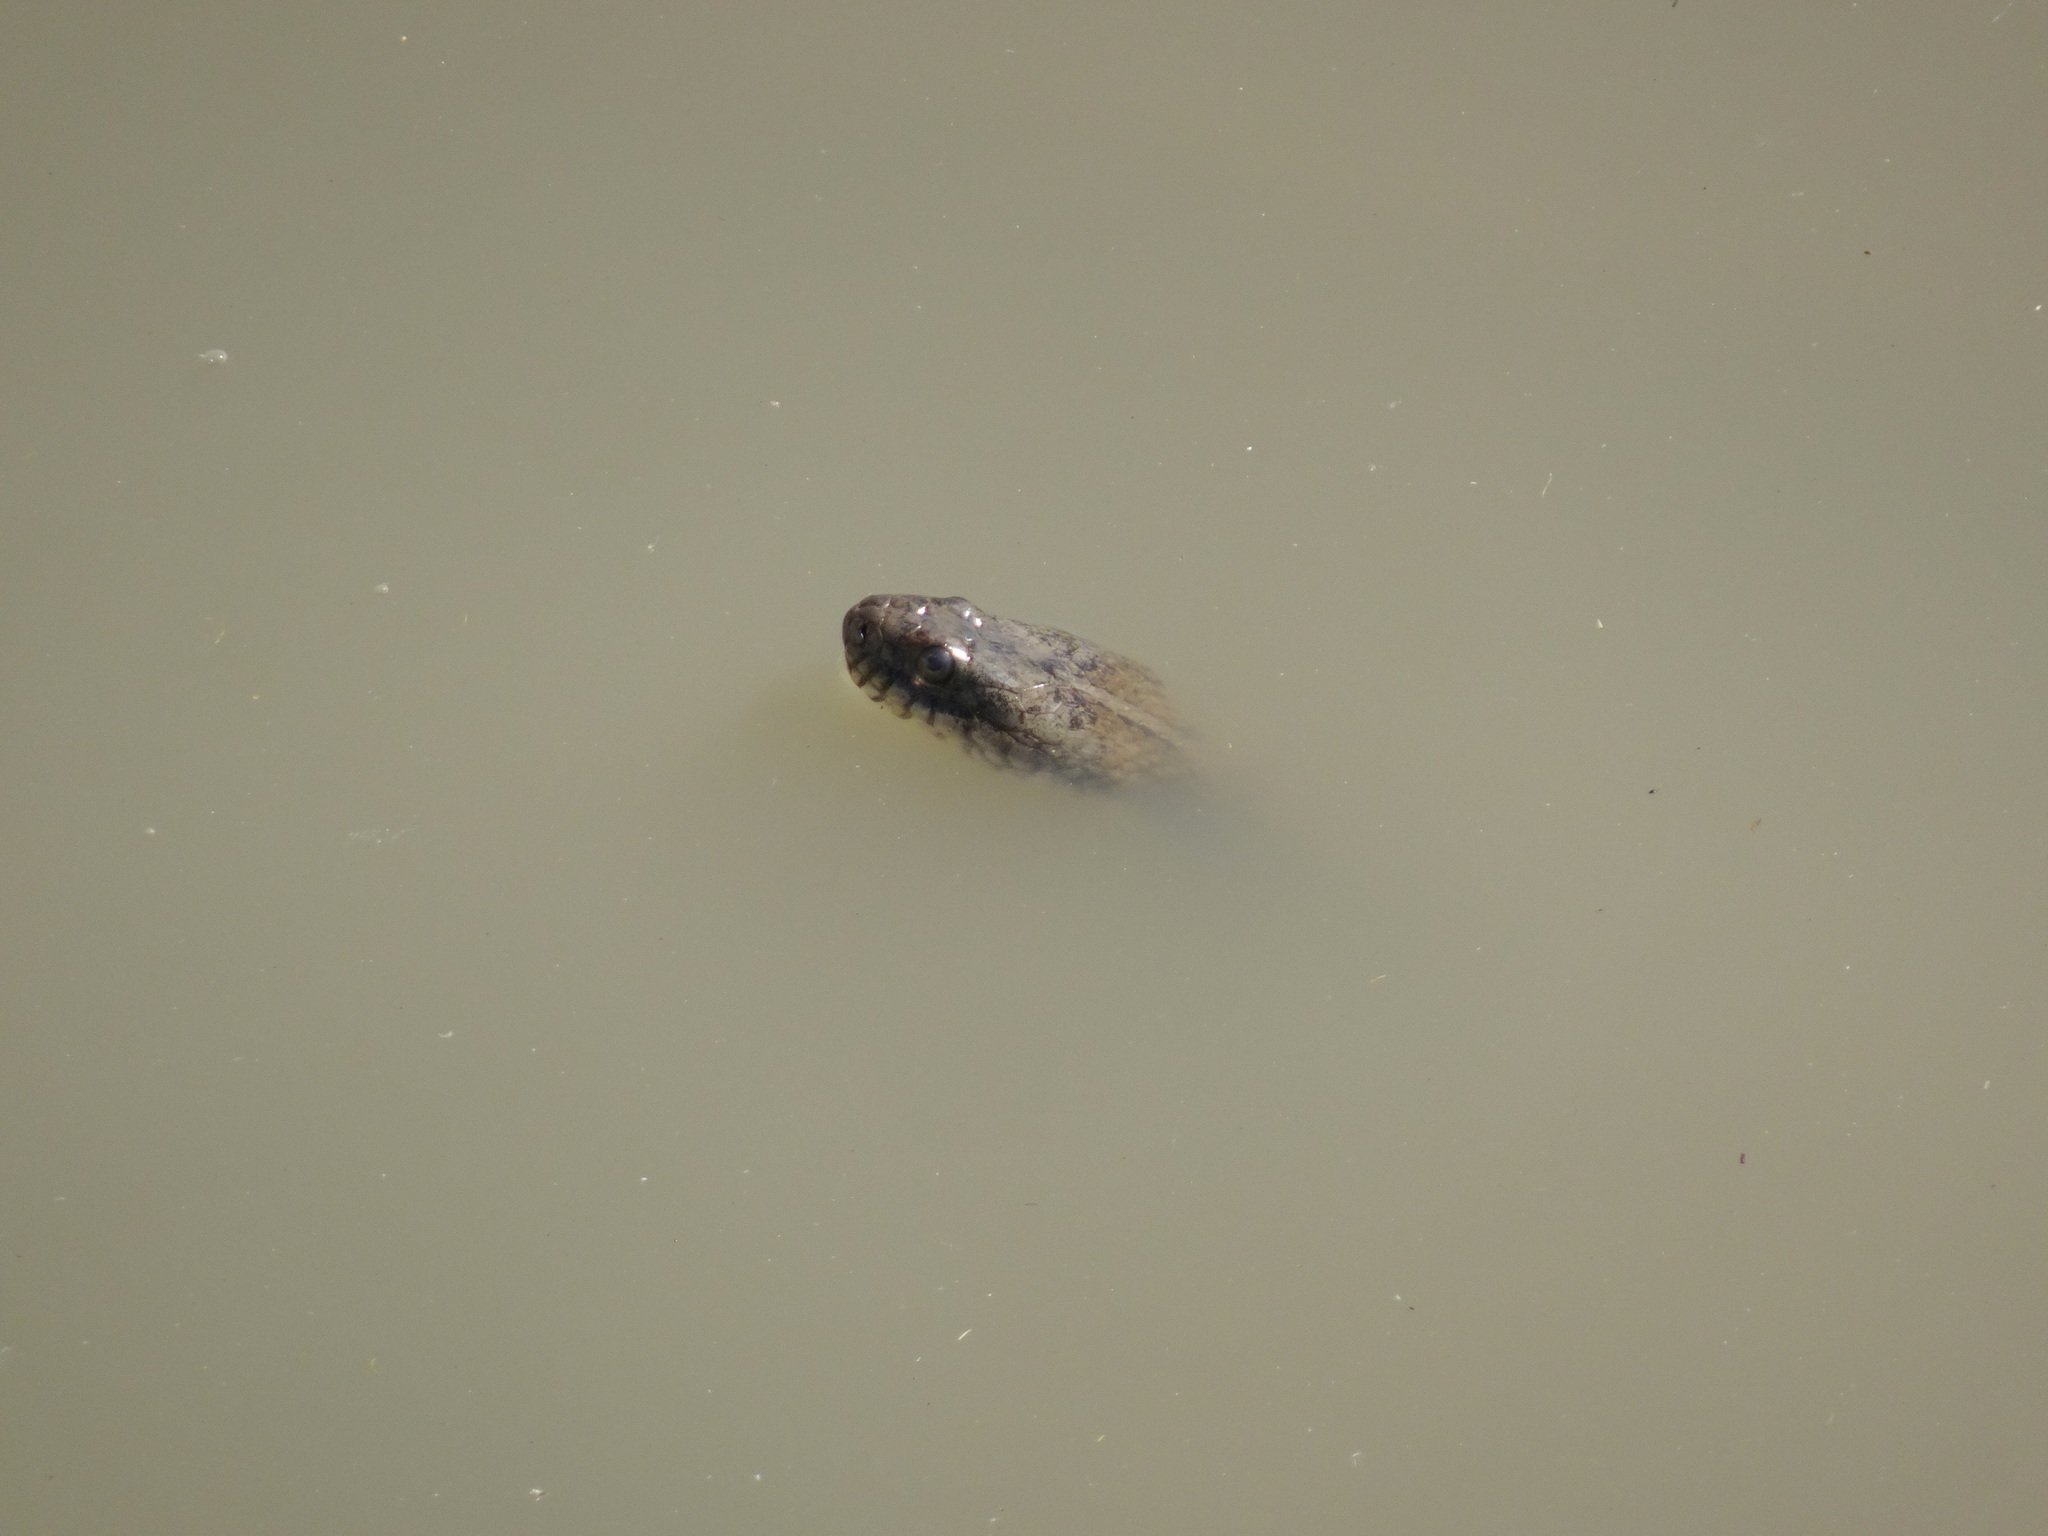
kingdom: Animalia
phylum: Chordata
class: Squamata
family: Colubridae
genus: Nerodia
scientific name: Nerodia sipedon
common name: Northern water snake
